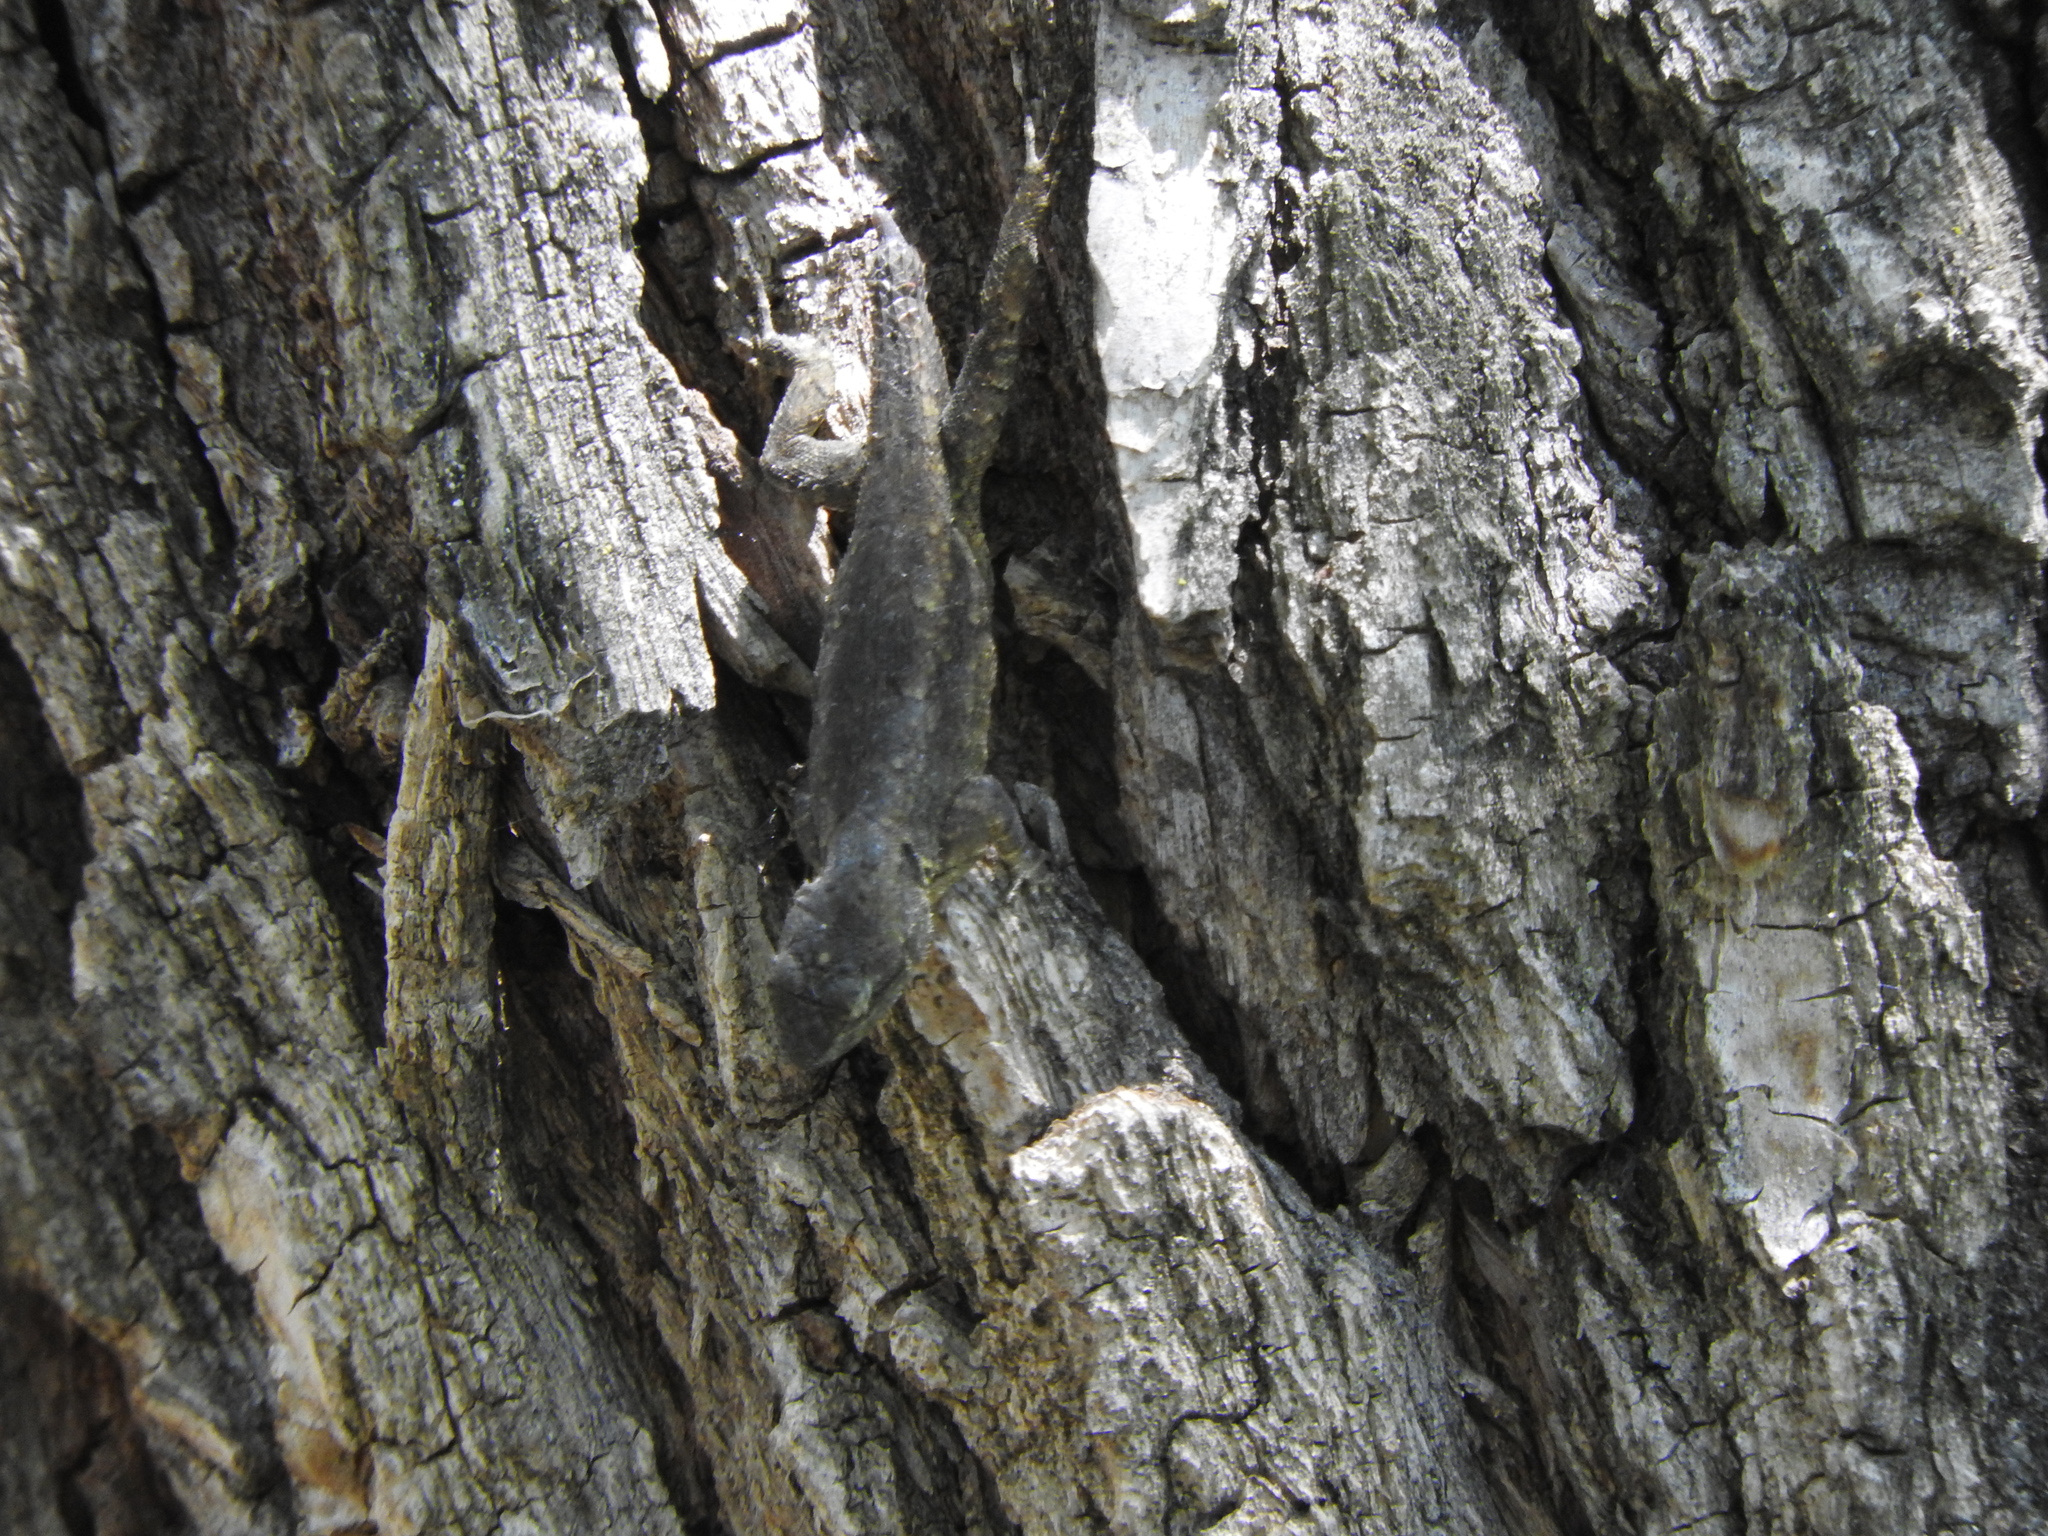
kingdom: Animalia
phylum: Chordata
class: Squamata
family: Phrynosomatidae
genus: Sceloporus
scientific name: Sceloporus grammicus
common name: Mesquite lizard
